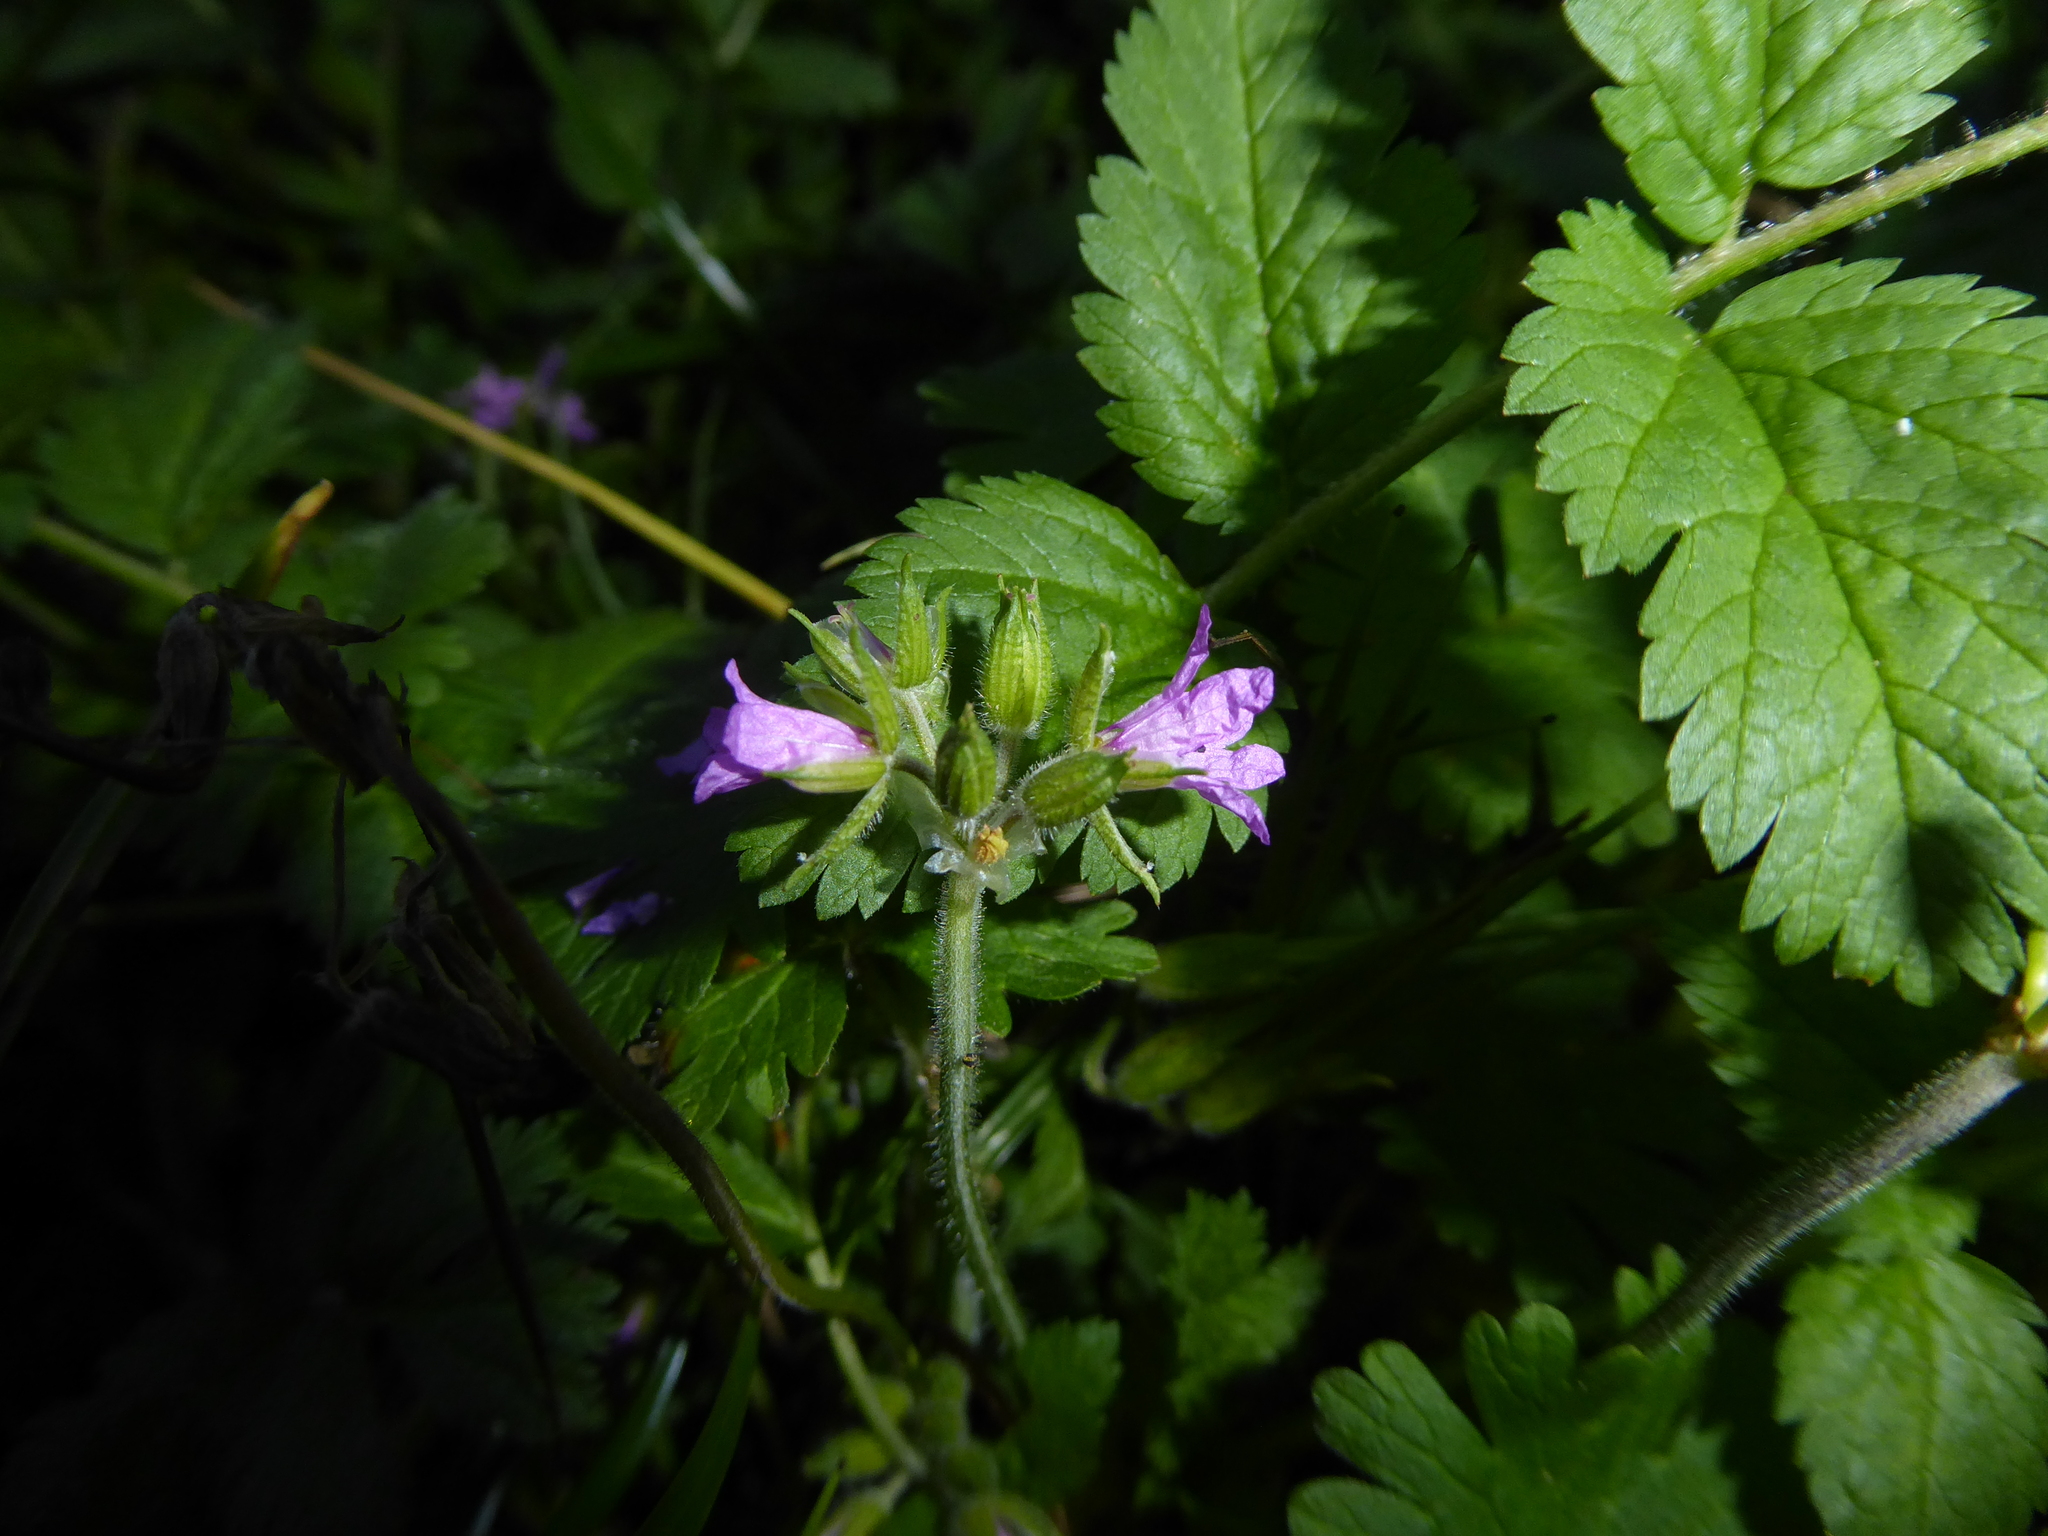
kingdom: Plantae
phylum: Tracheophyta
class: Magnoliopsida
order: Geraniales
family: Geraniaceae
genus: Erodium
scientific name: Erodium moschatum
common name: Musk stork's-bill
